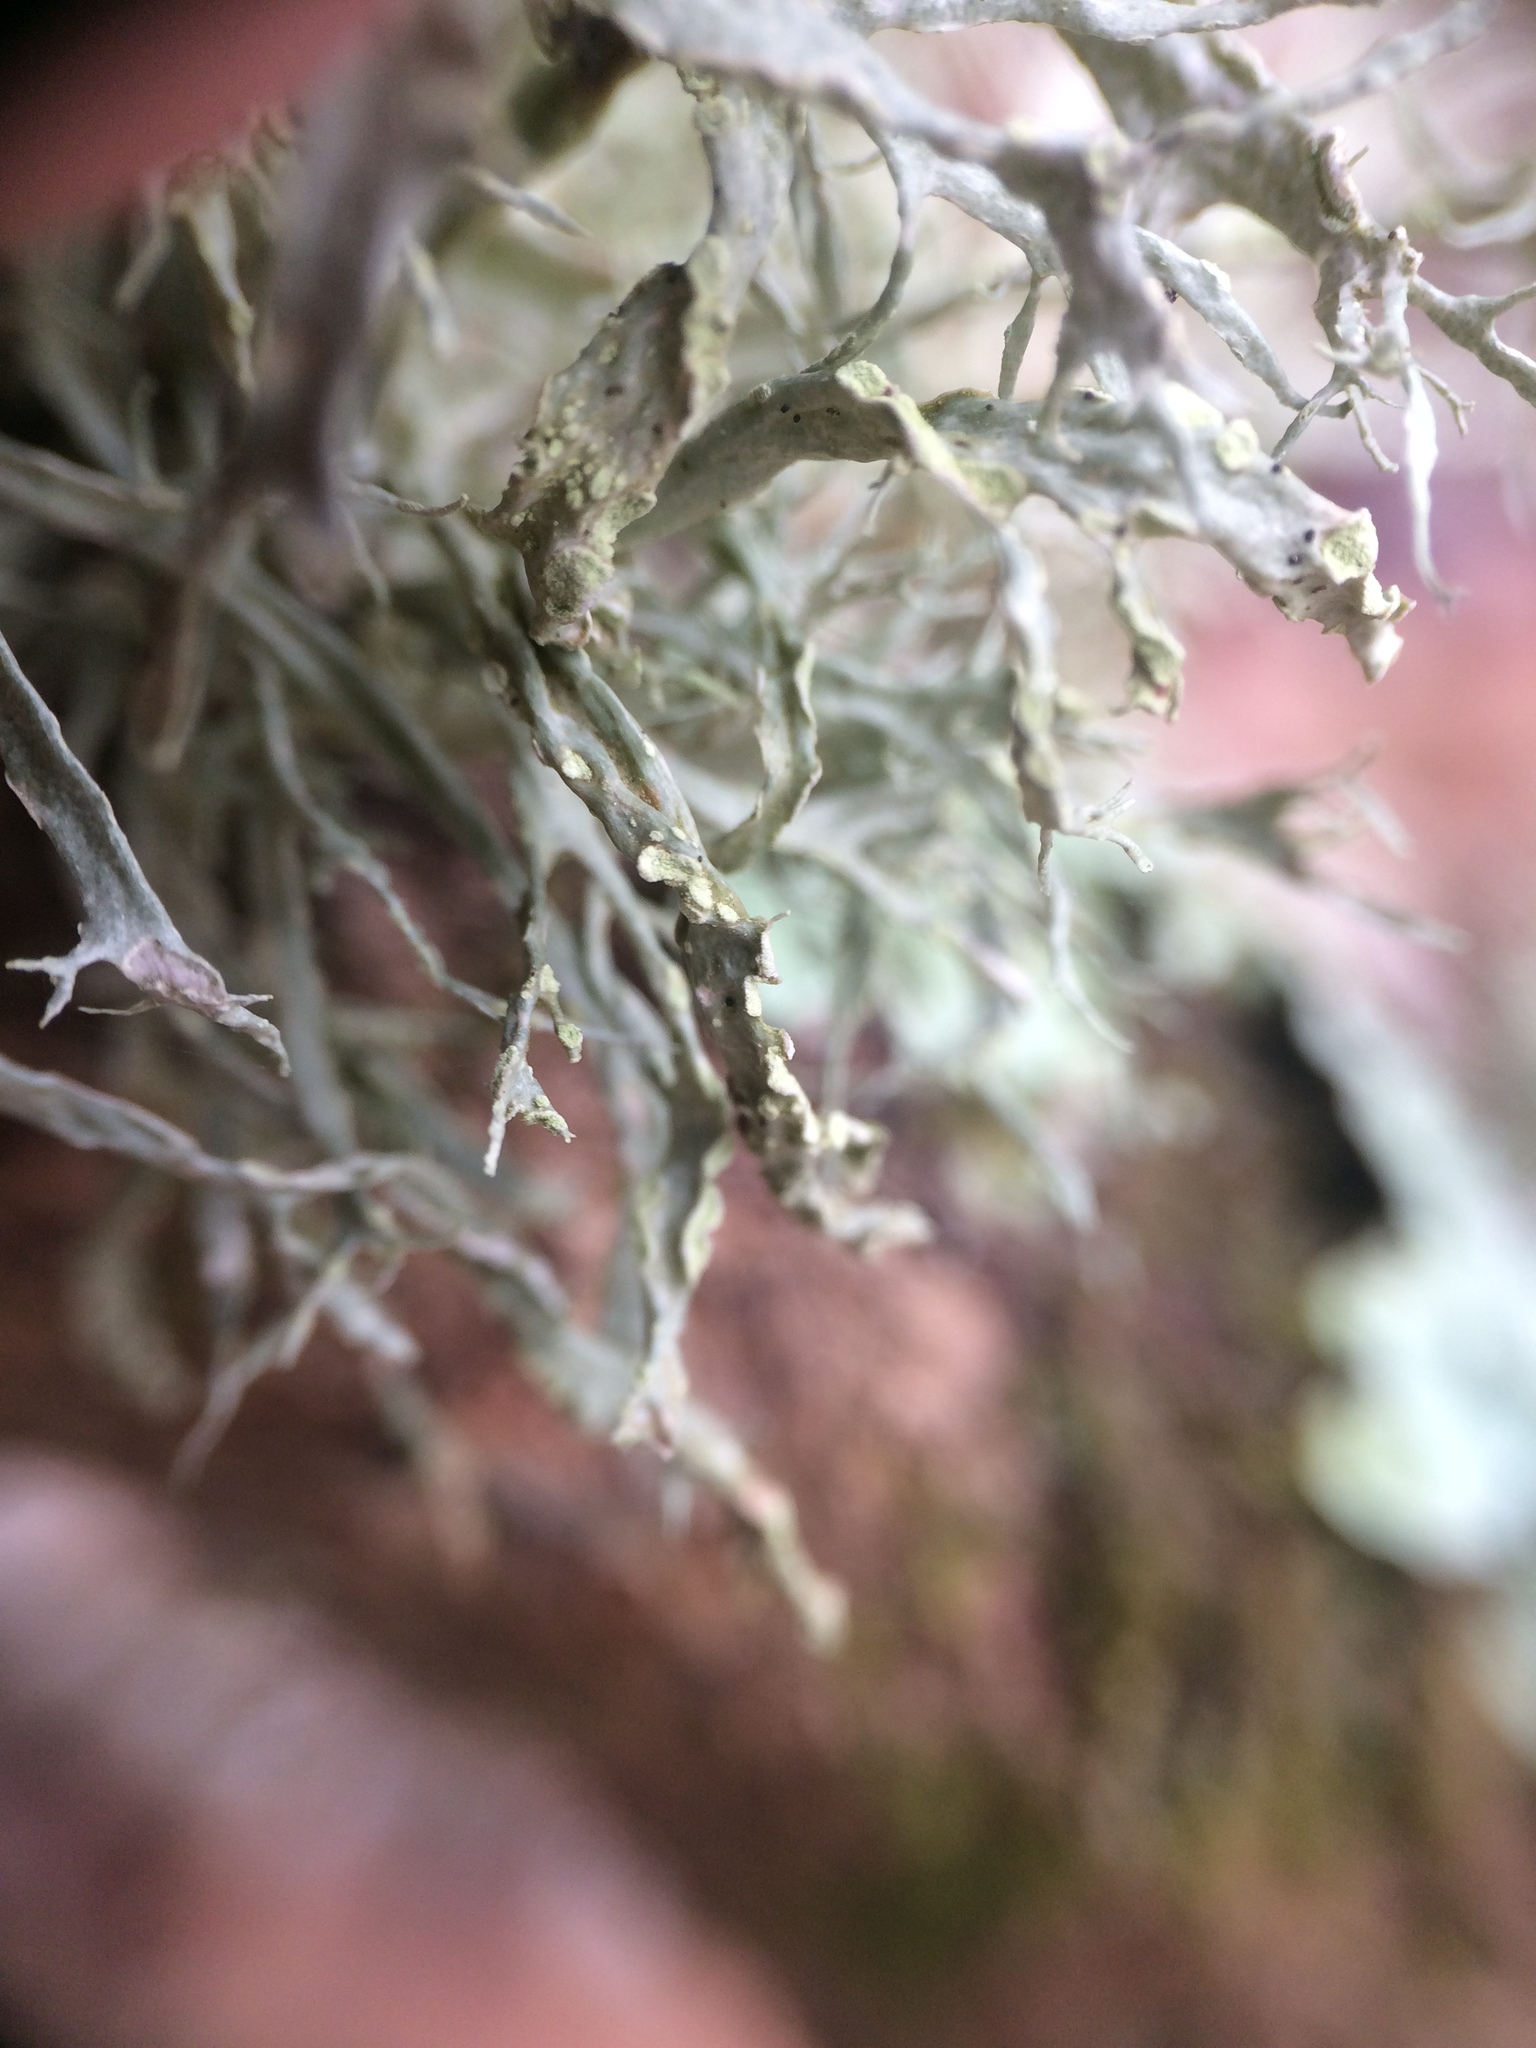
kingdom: Fungi
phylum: Ascomycota
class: Lecanoromycetes
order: Lecanorales
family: Ramalinaceae
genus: Ramalina
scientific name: Ramalina farinacea
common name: Farinose cartilage lichen
